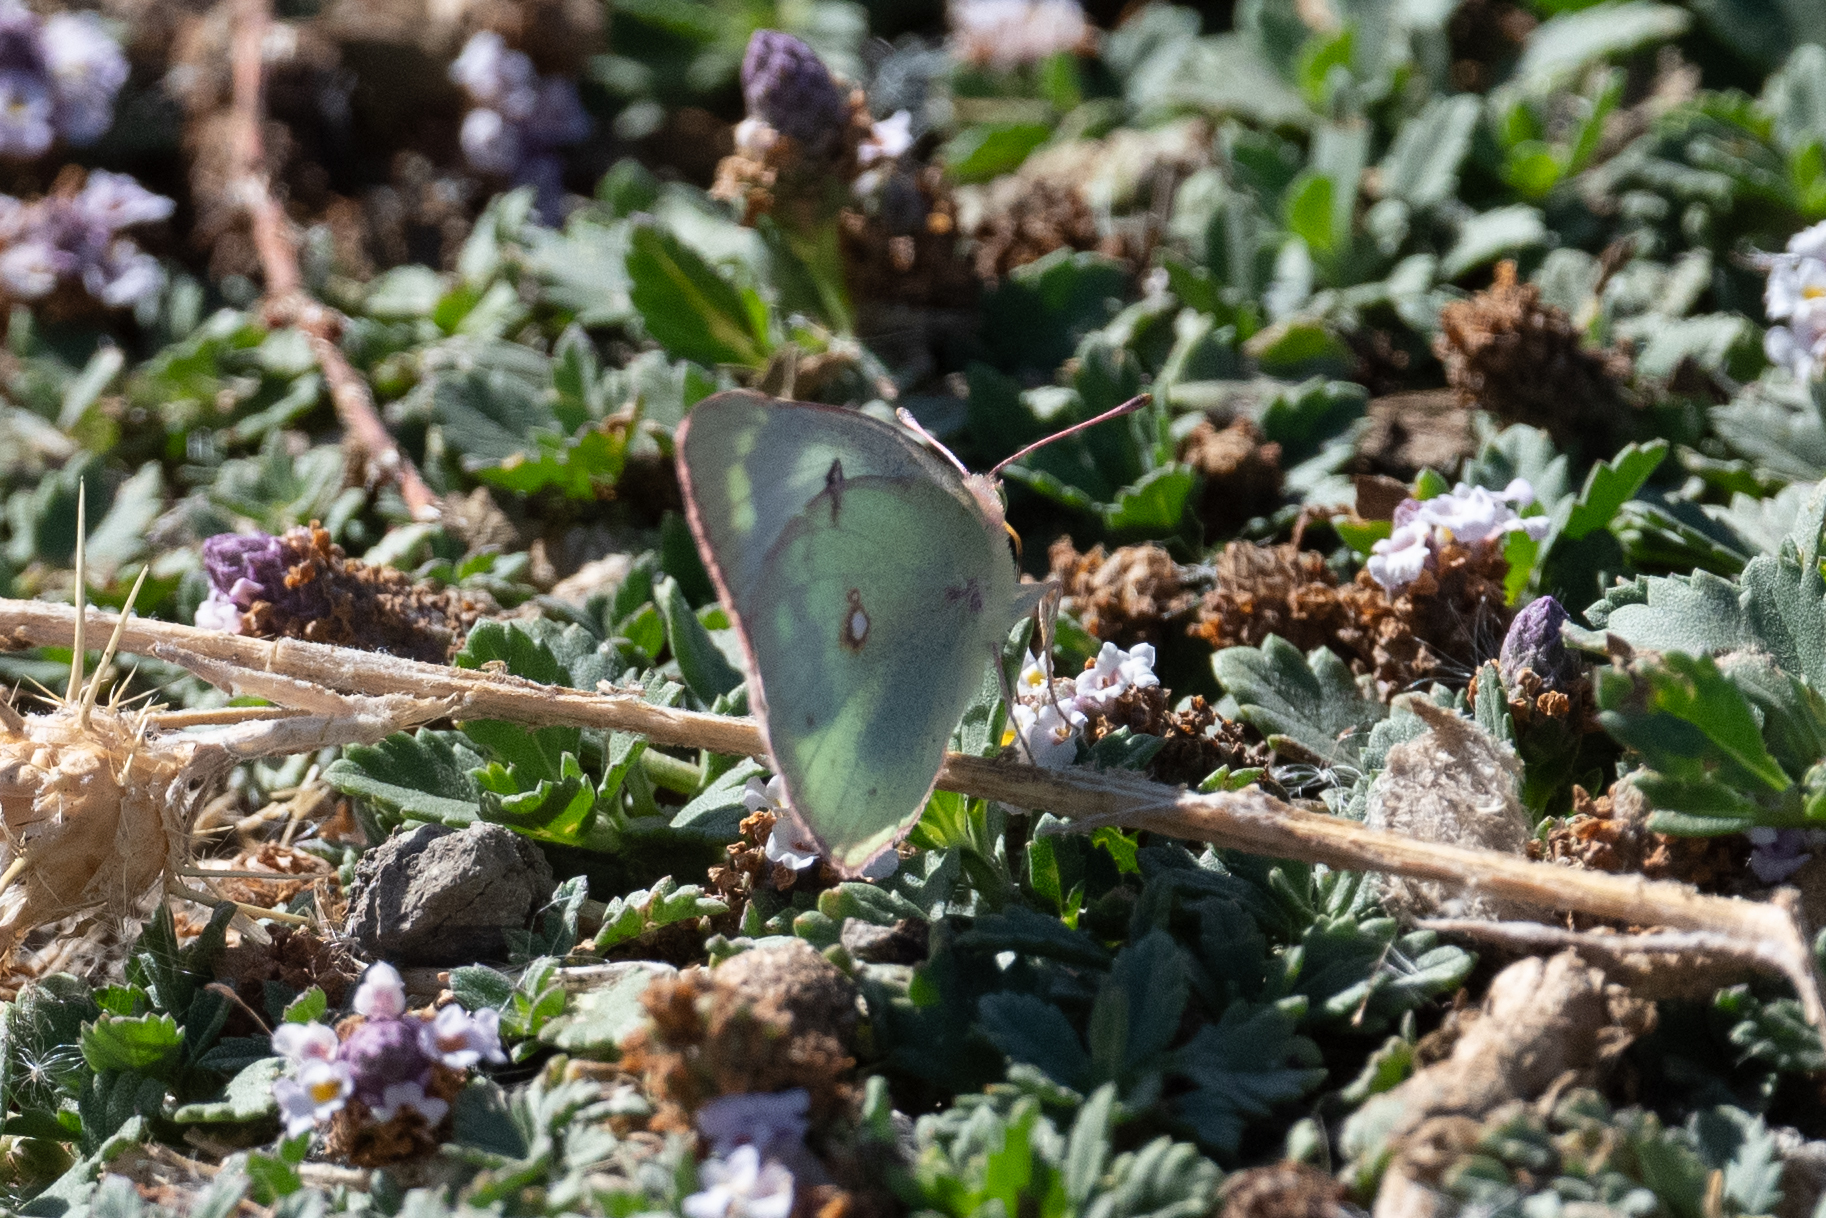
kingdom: Animalia
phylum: Arthropoda
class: Insecta
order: Lepidoptera
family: Pieridae
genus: Colias
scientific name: Colias eurytheme
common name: Alfalfa butterfly
